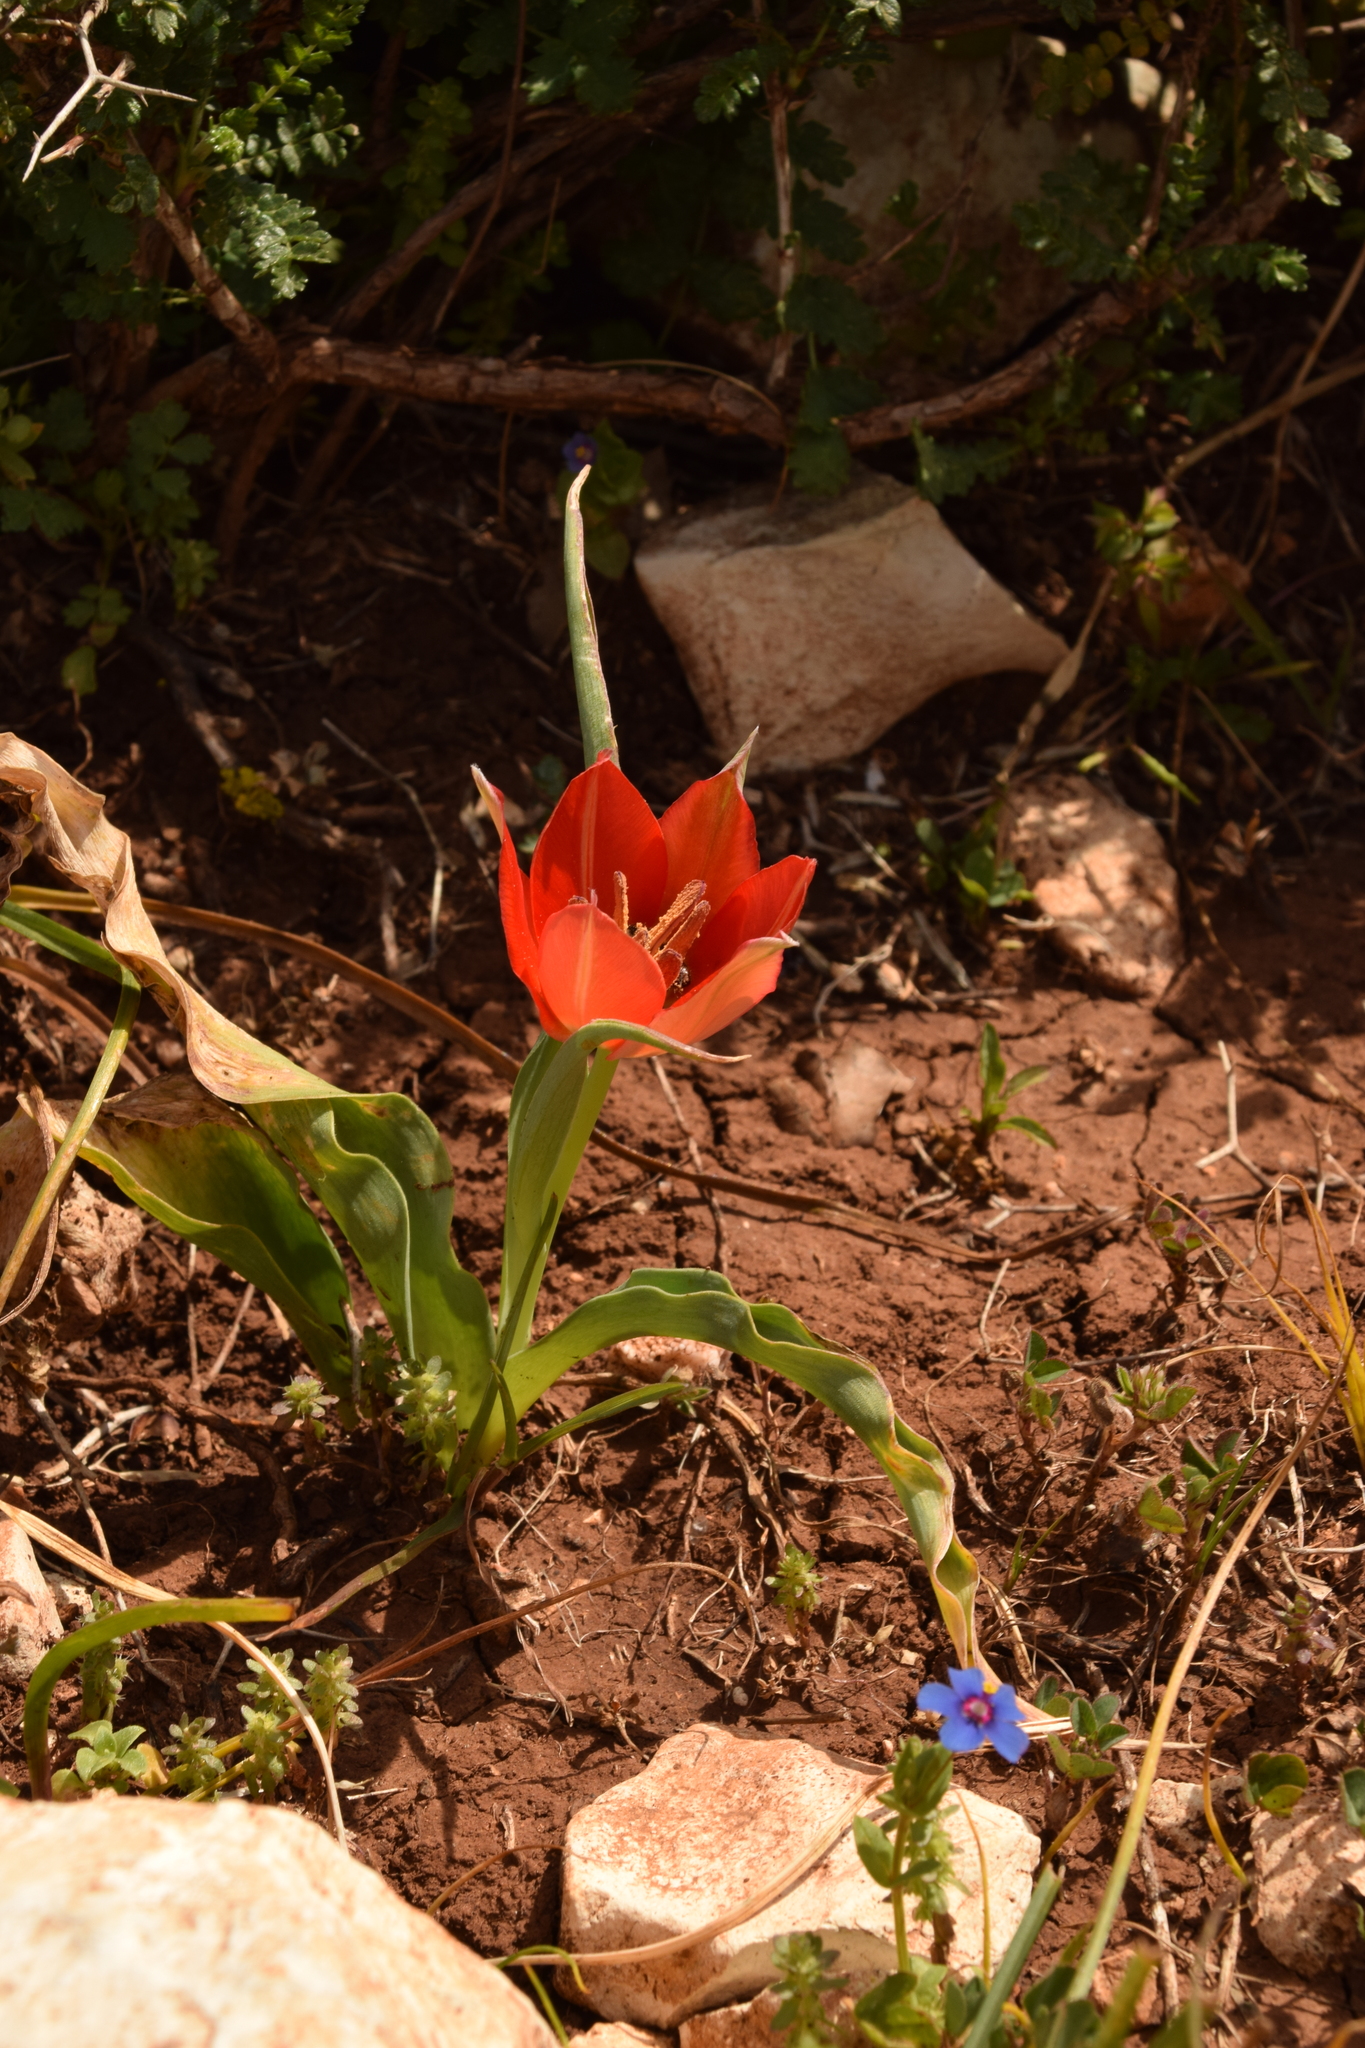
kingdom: Plantae
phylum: Tracheophyta
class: Liliopsida
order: Liliales
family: Liliaceae
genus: Tulipa
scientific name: Tulipa agenensis
